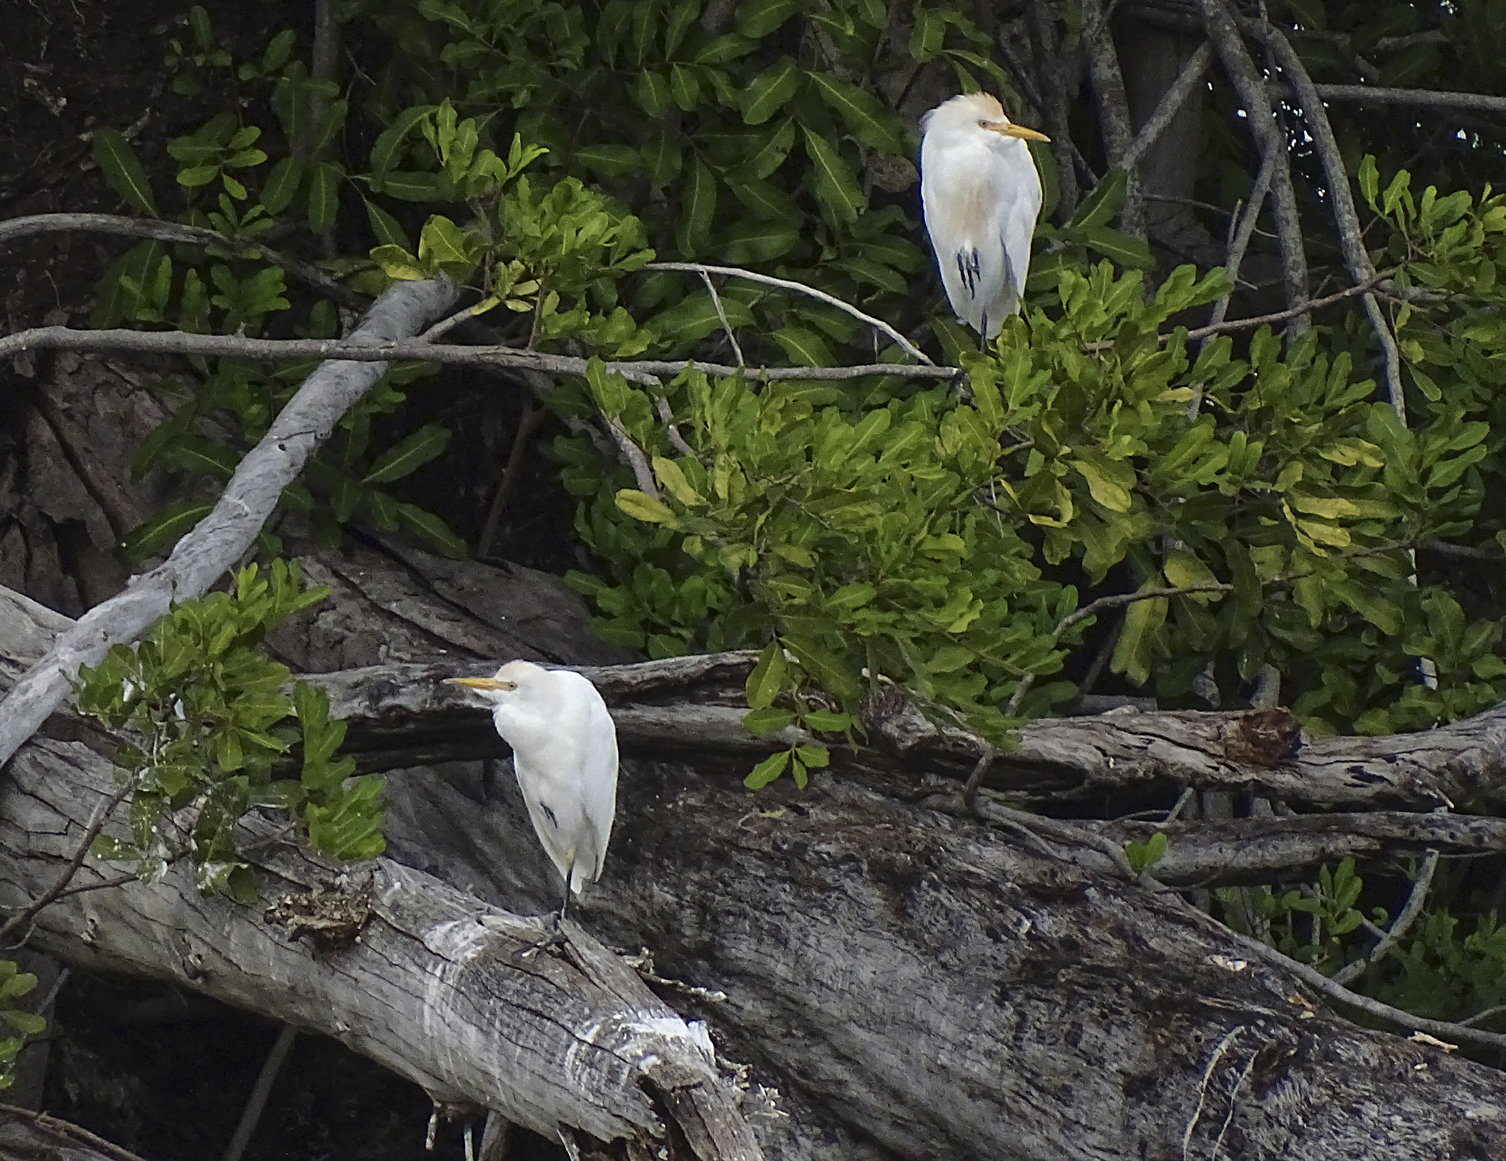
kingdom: Animalia
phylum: Chordata
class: Aves
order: Pelecaniformes
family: Ardeidae
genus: Bubulcus
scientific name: Bubulcus ibis
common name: Cattle egret
